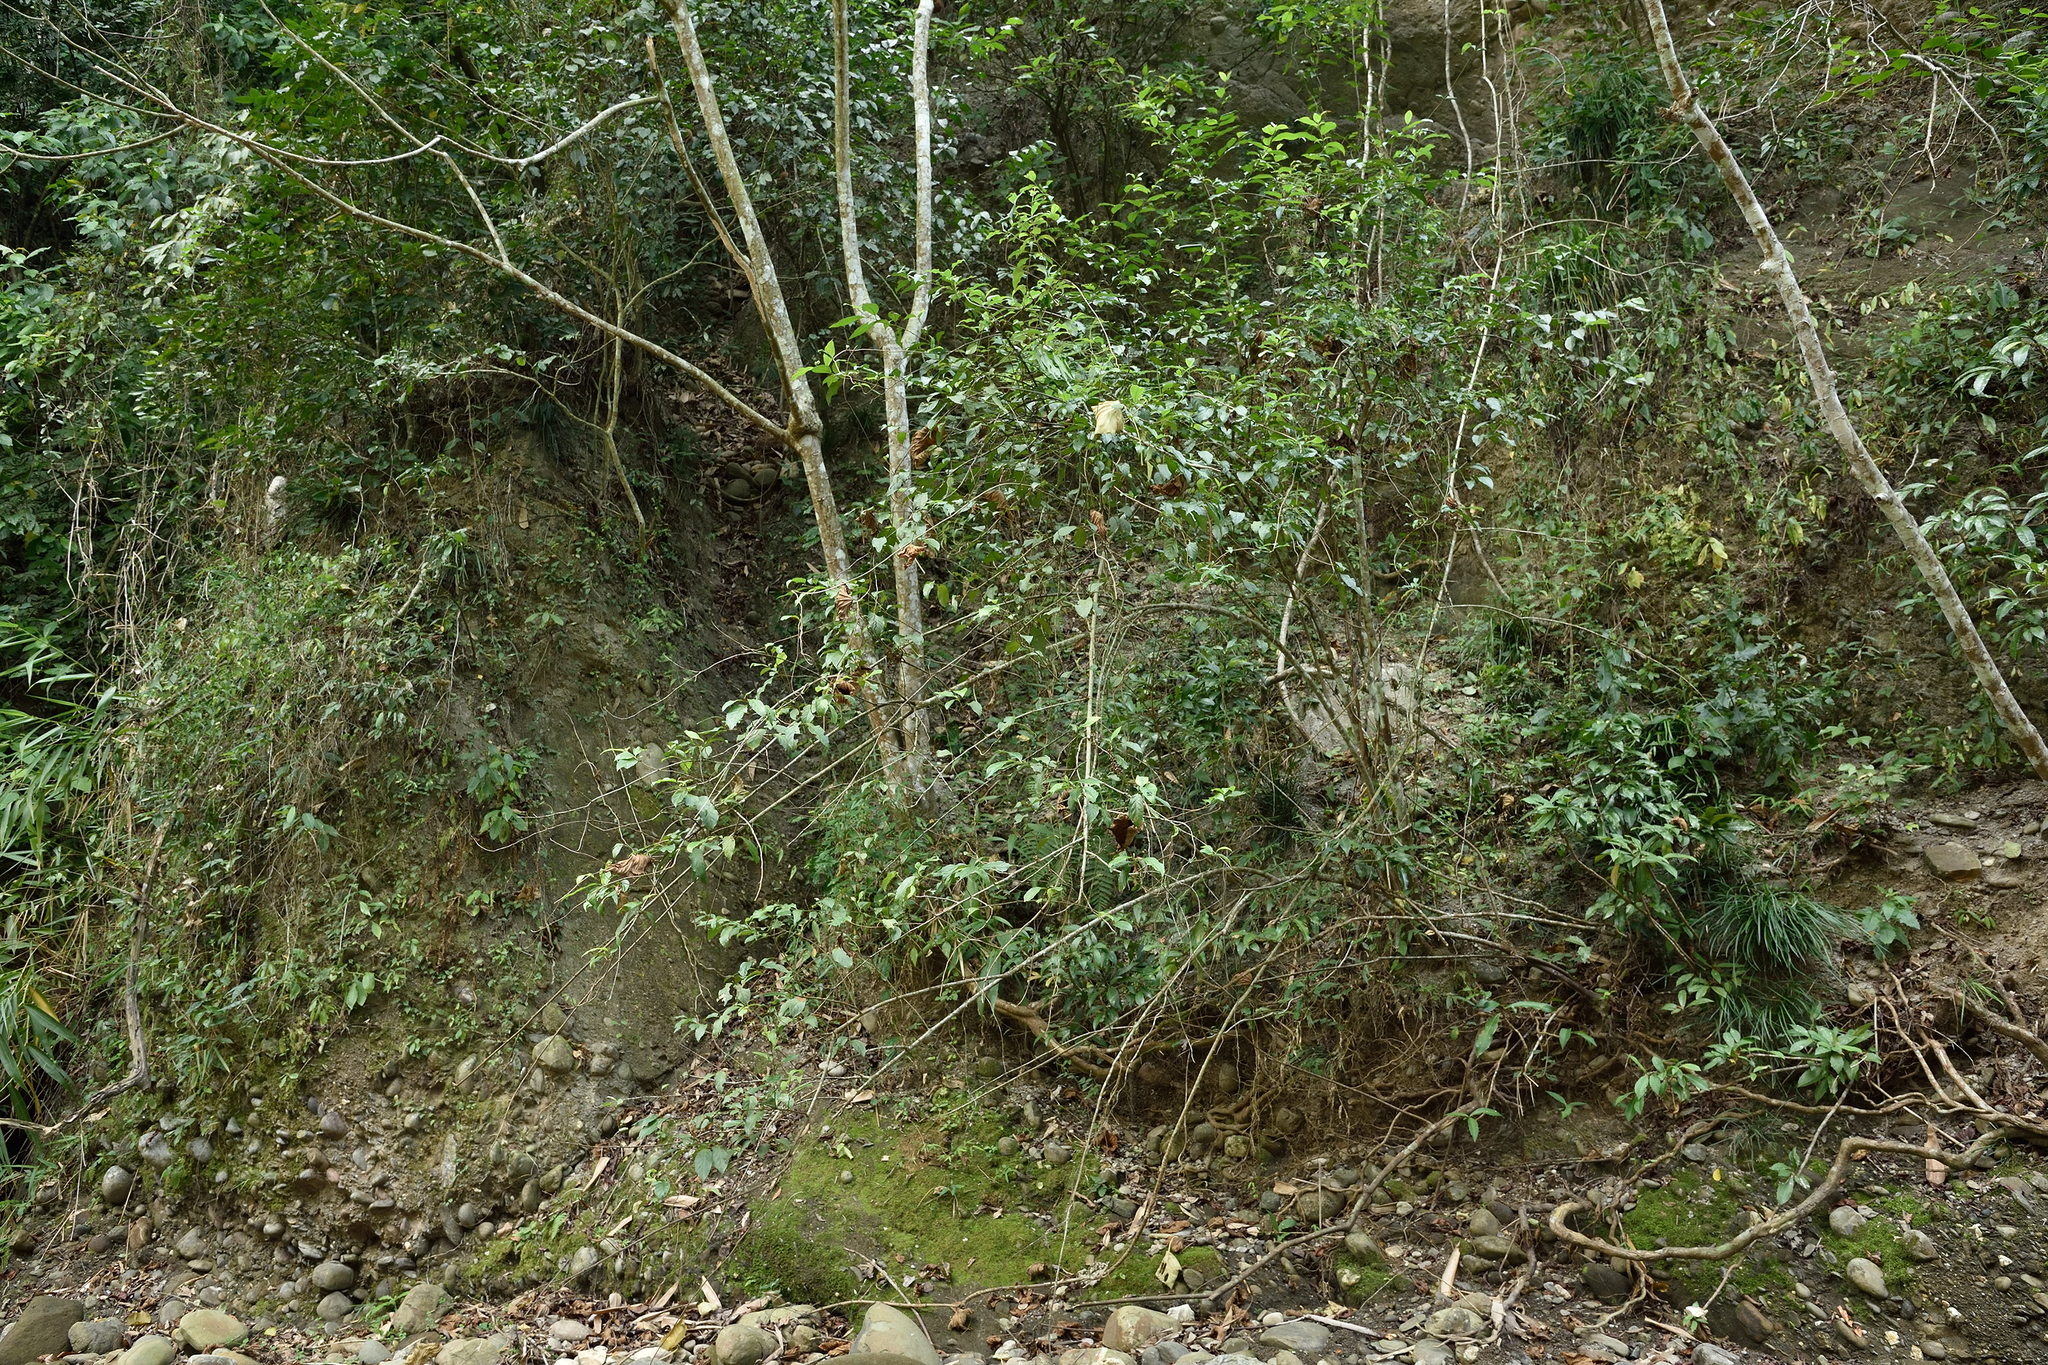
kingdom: Plantae
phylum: Tracheophyta
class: Magnoliopsida
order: Ericales
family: Primulaceae
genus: Maesa
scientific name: Maesa perlaria
